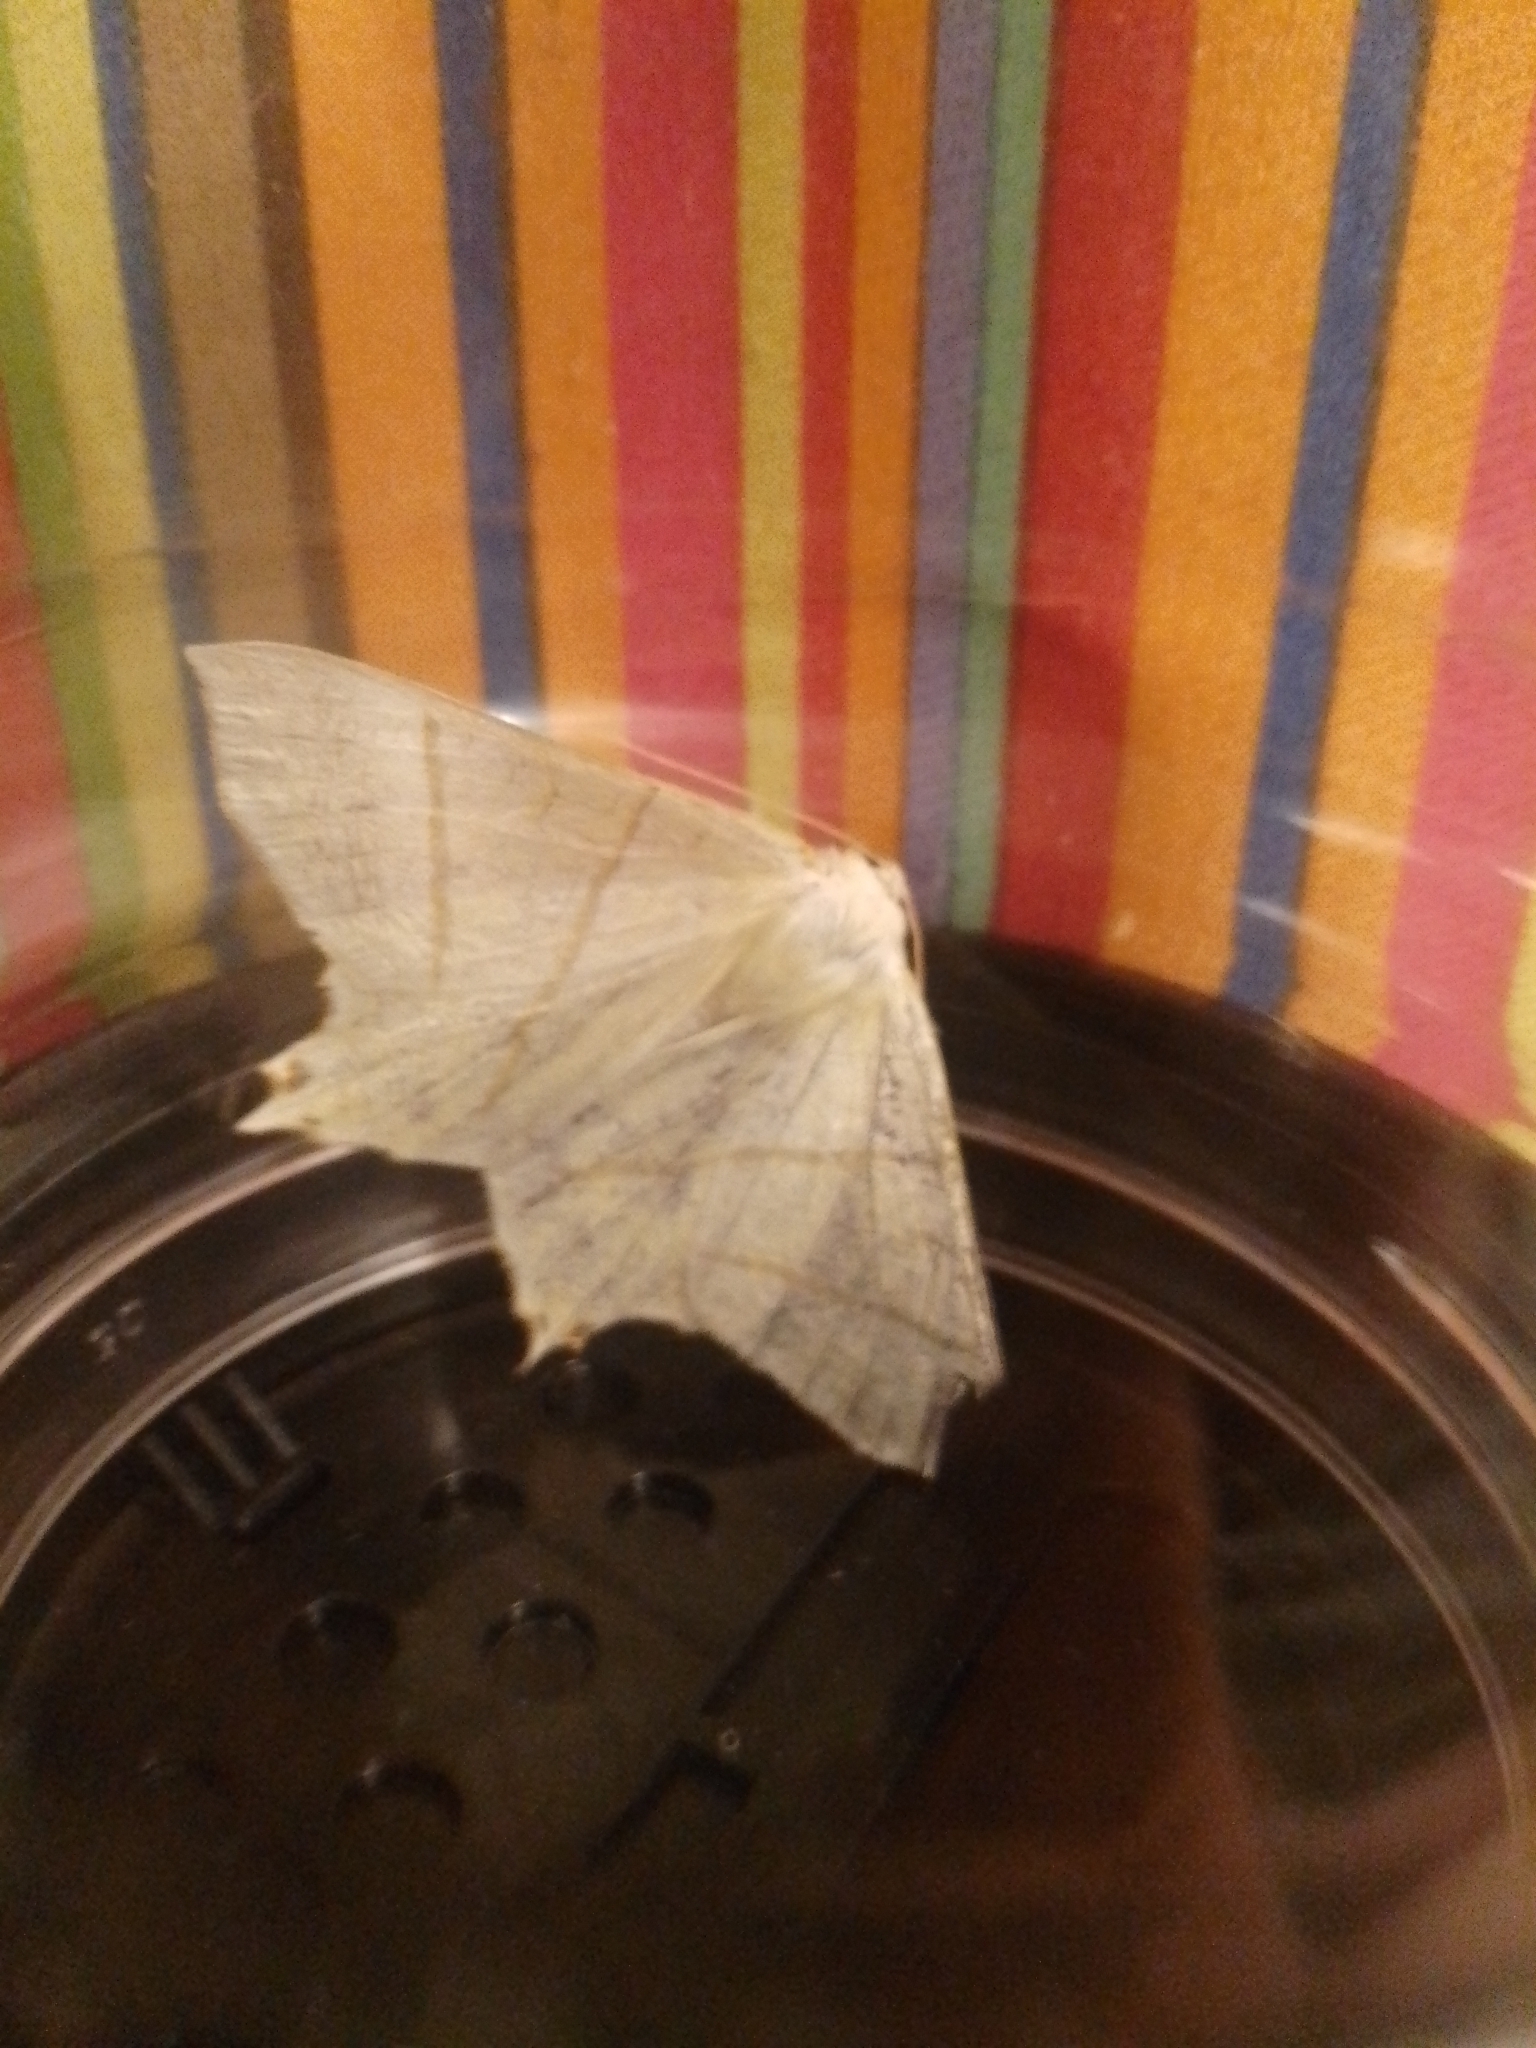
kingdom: Animalia
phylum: Arthropoda
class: Insecta
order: Lepidoptera
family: Geometridae
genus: Ourapteryx
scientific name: Ourapteryx sambucaria
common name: Swallow-tailed moth
